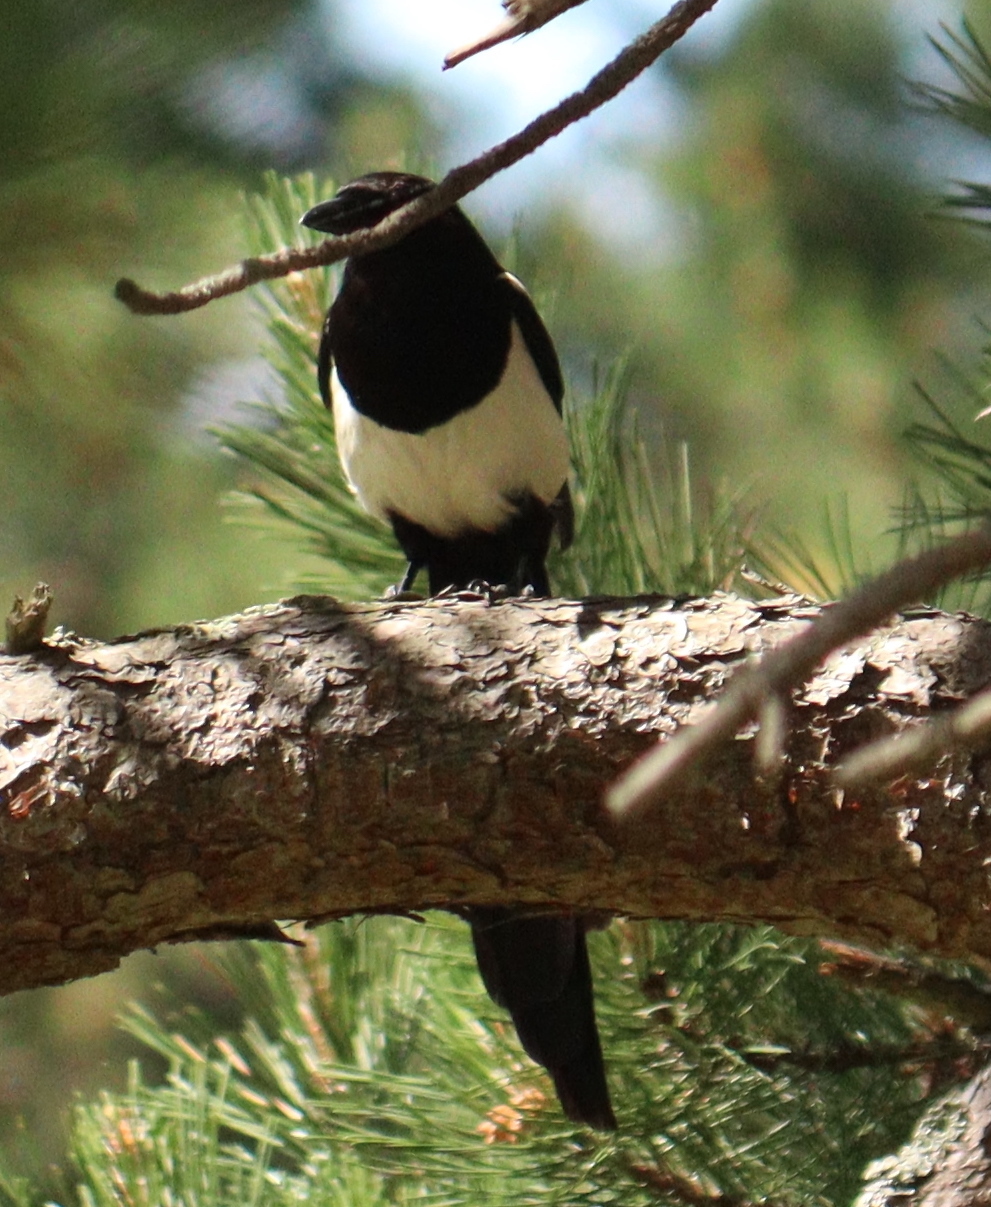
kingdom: Animalia
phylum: Chordata
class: Aves
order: Passeriformes
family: Corvidae
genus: Pica
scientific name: Pica pica
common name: Eurasian magpie
